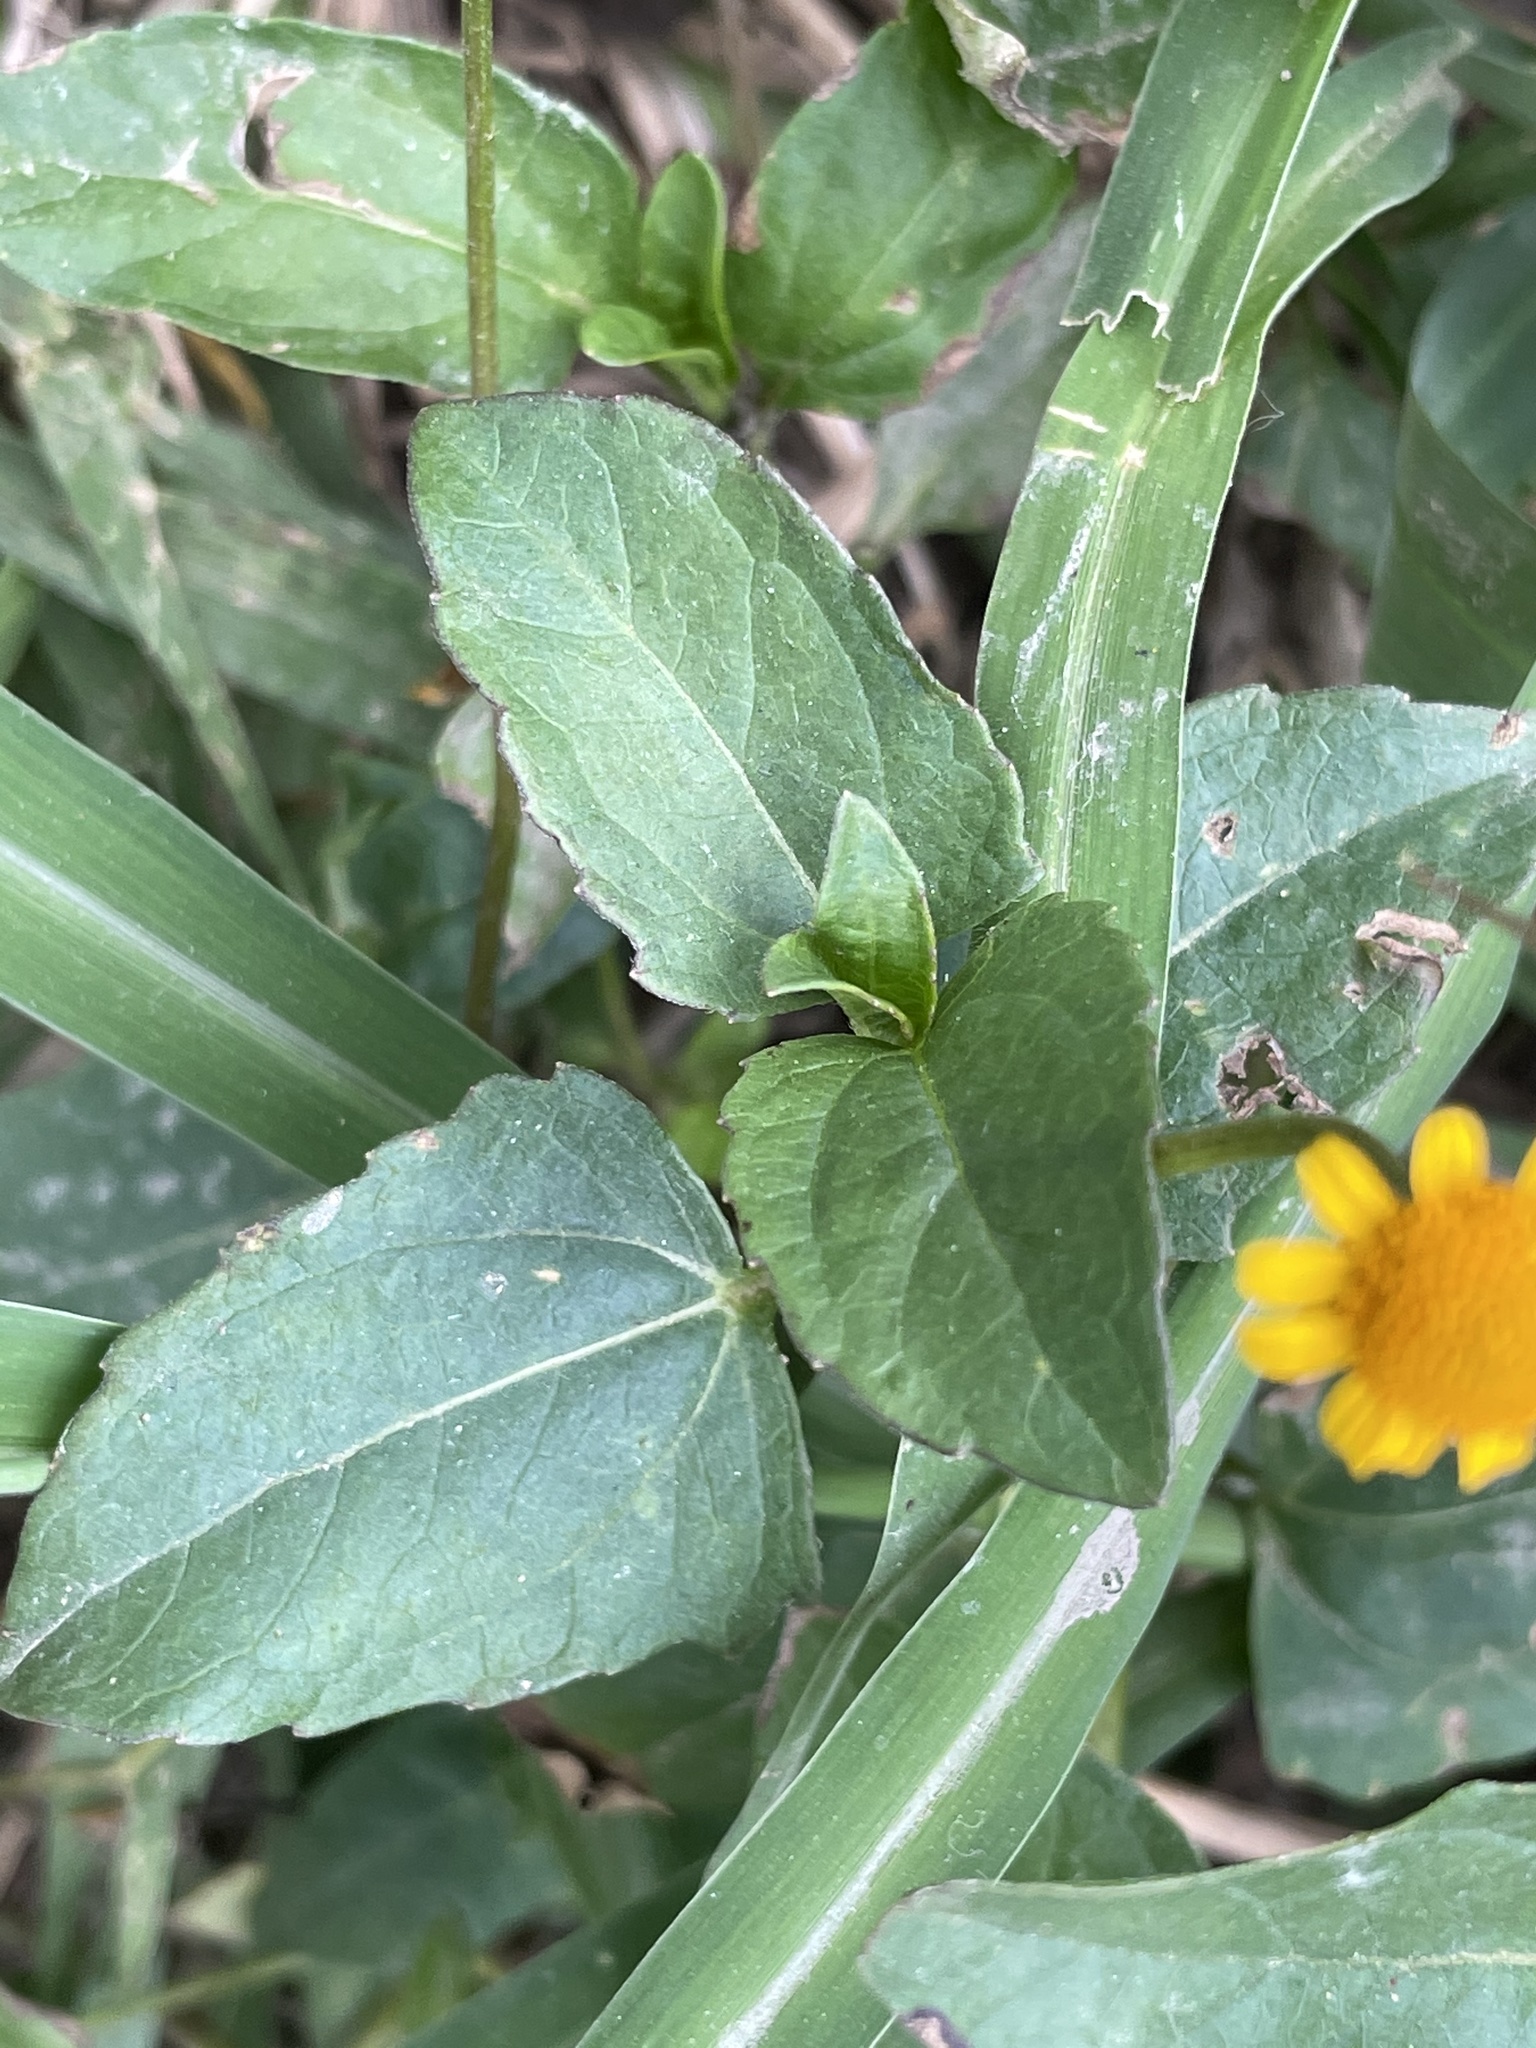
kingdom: Plantae
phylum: Tracheophyta
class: Magnoliopsida
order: Asterales
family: Asteraceae
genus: Acmella
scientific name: Acmella repens
